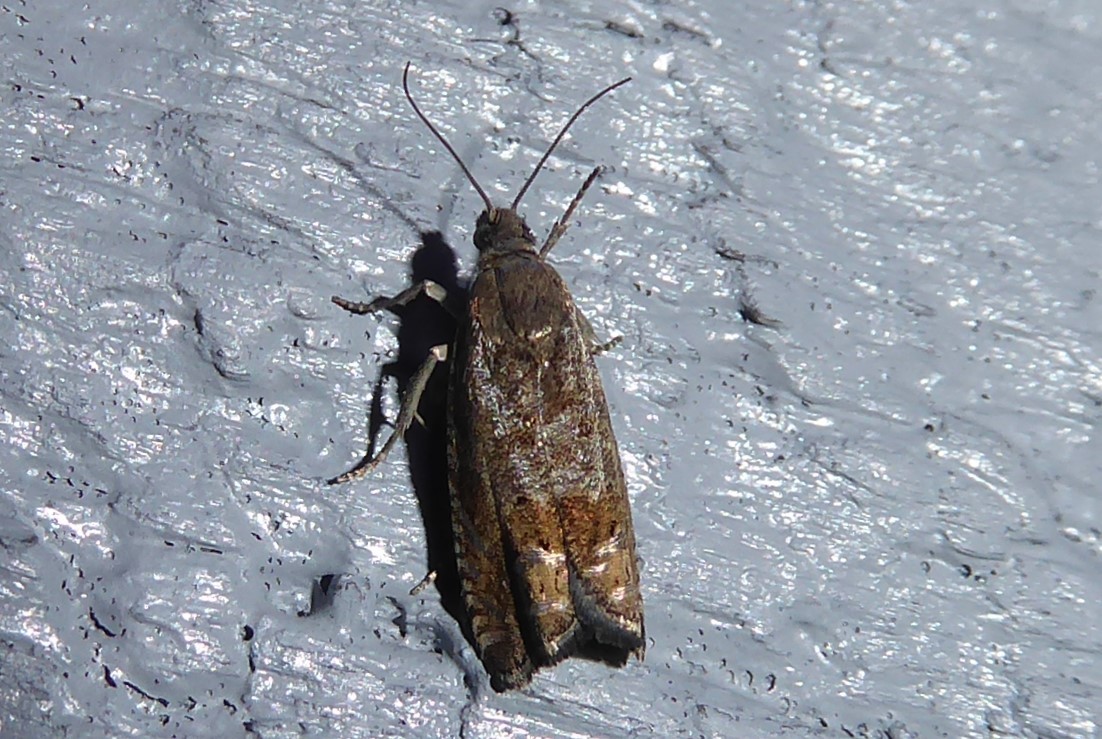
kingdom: Animalia
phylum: Arthropoda
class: Insecta
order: Lepidoptera
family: Tortricidae
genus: Cydia
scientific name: Cydia succedana
